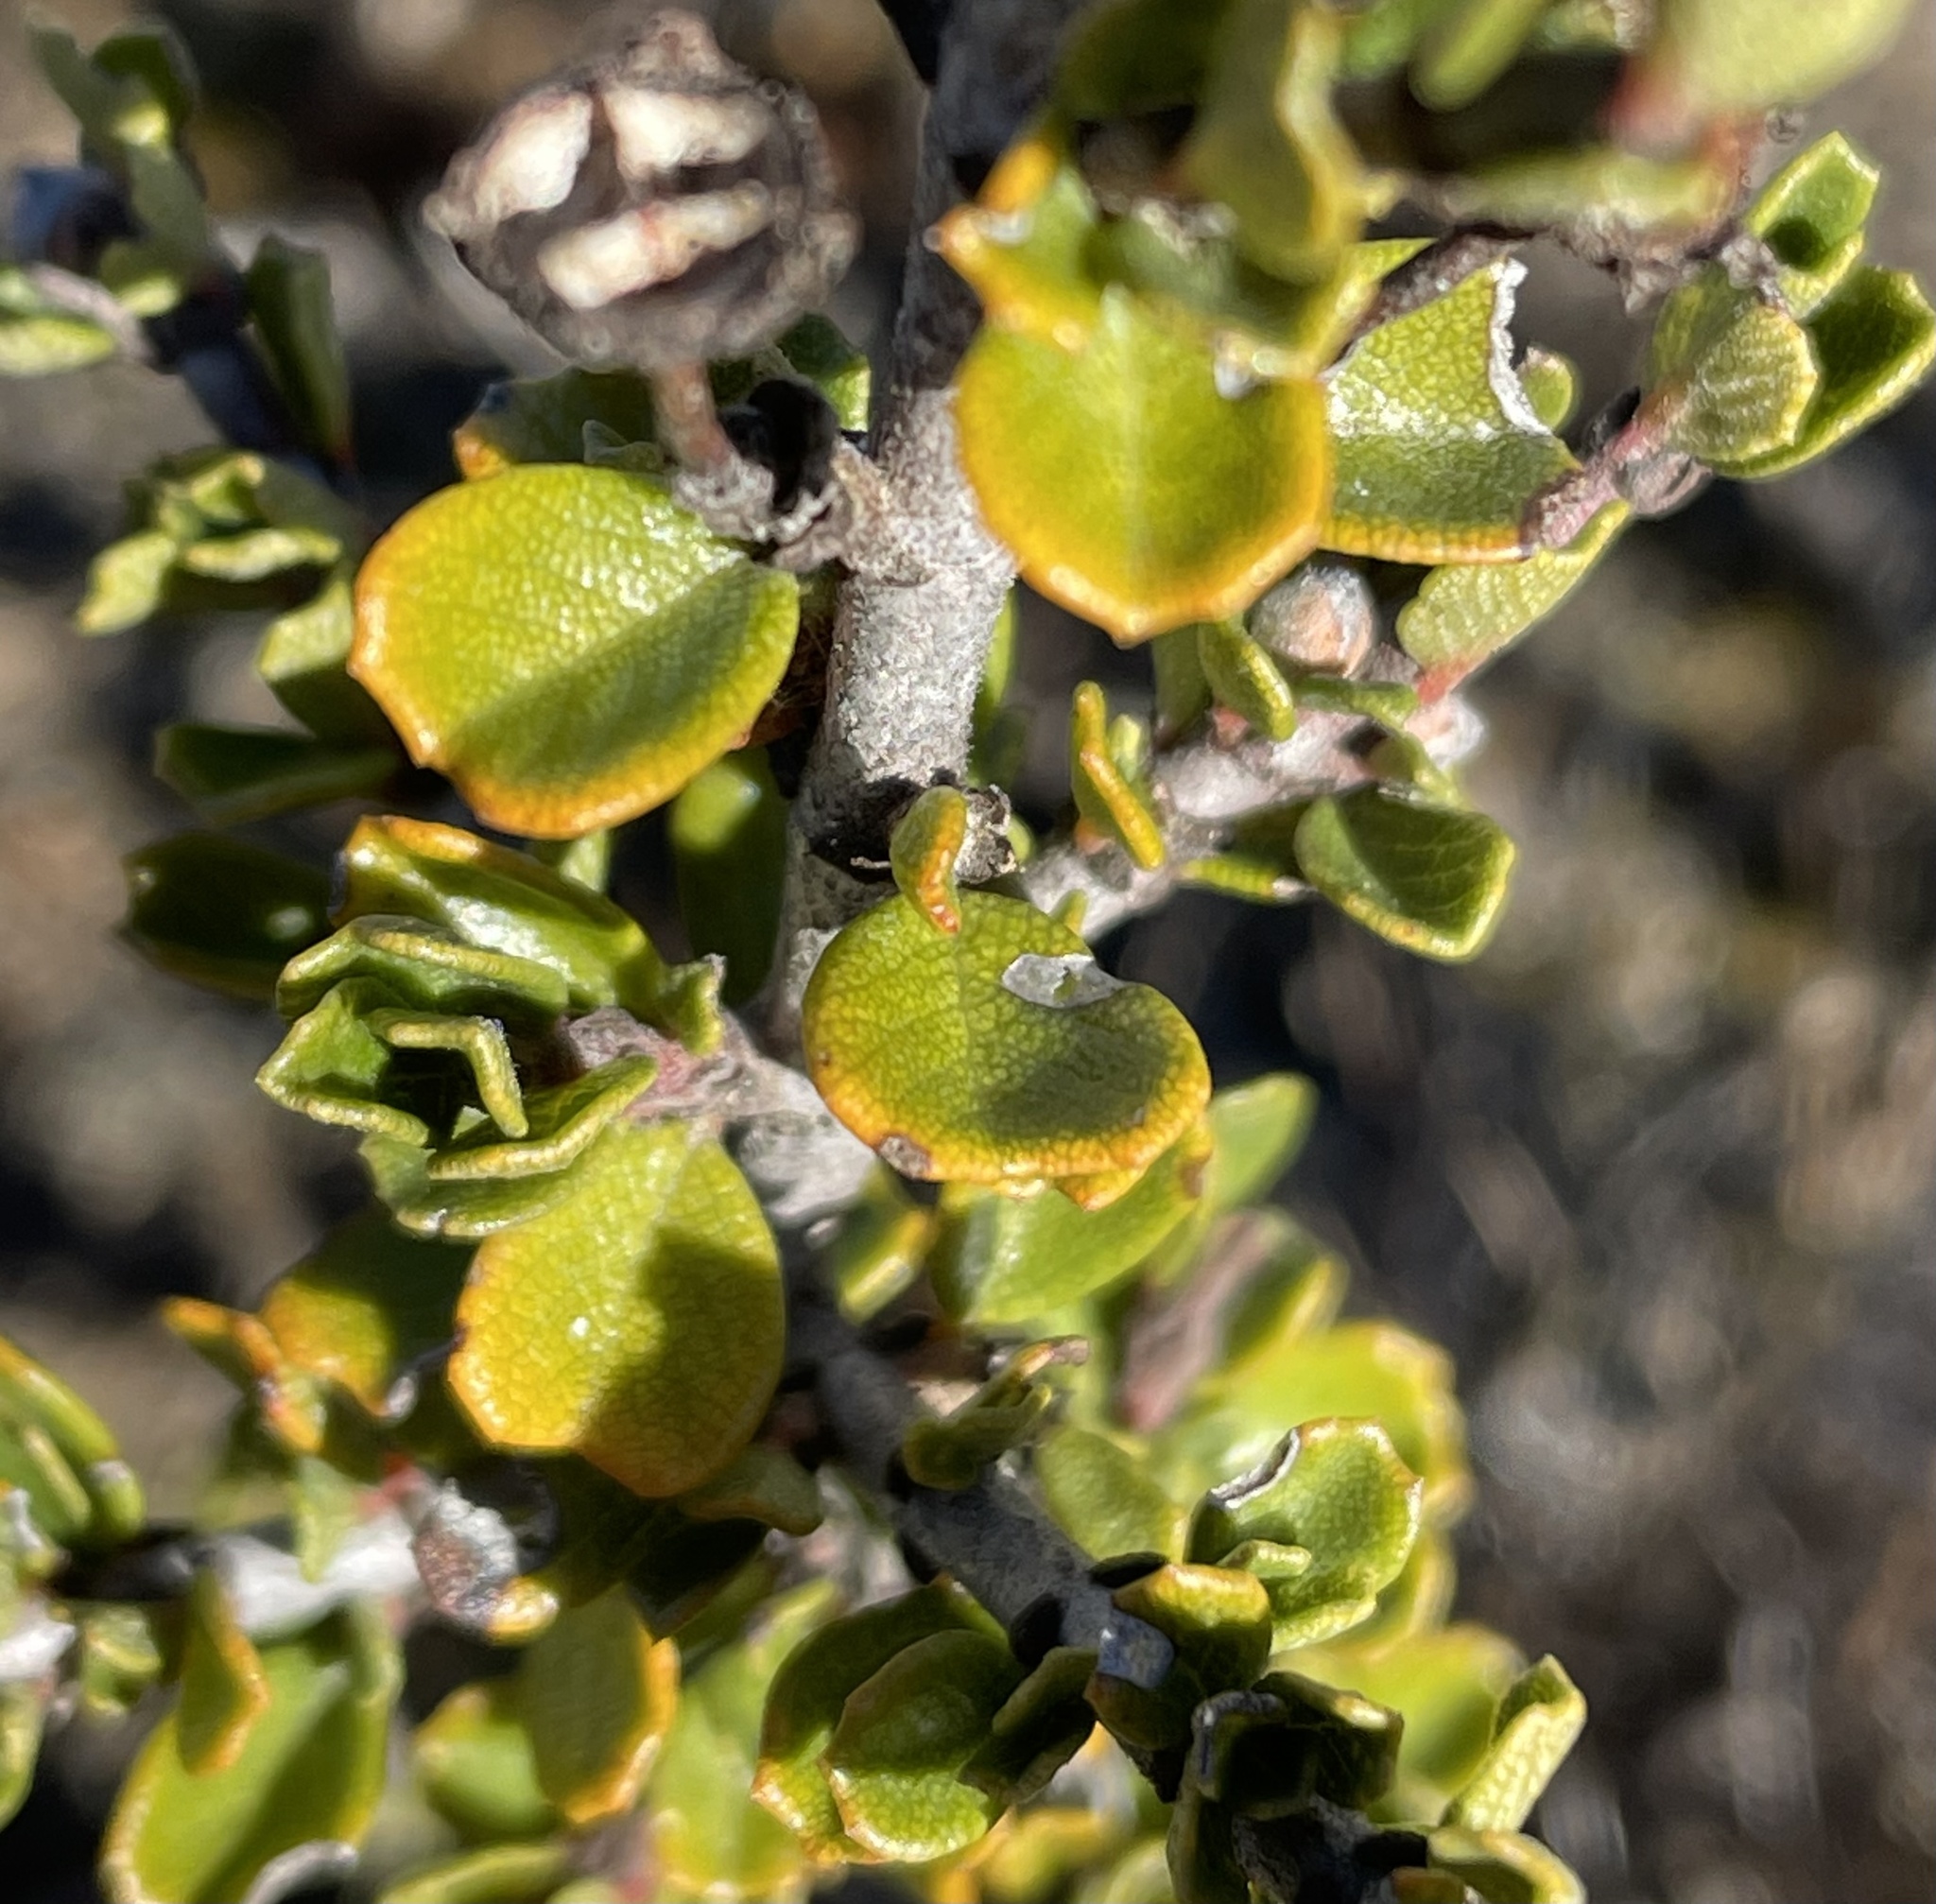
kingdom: Plantae
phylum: Tracheophyta
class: Magnoliopsida
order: Rosales
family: Rhamnaceae
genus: Ceanothus
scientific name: Ceanothus cuneatus
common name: Cuneate ceanothus
